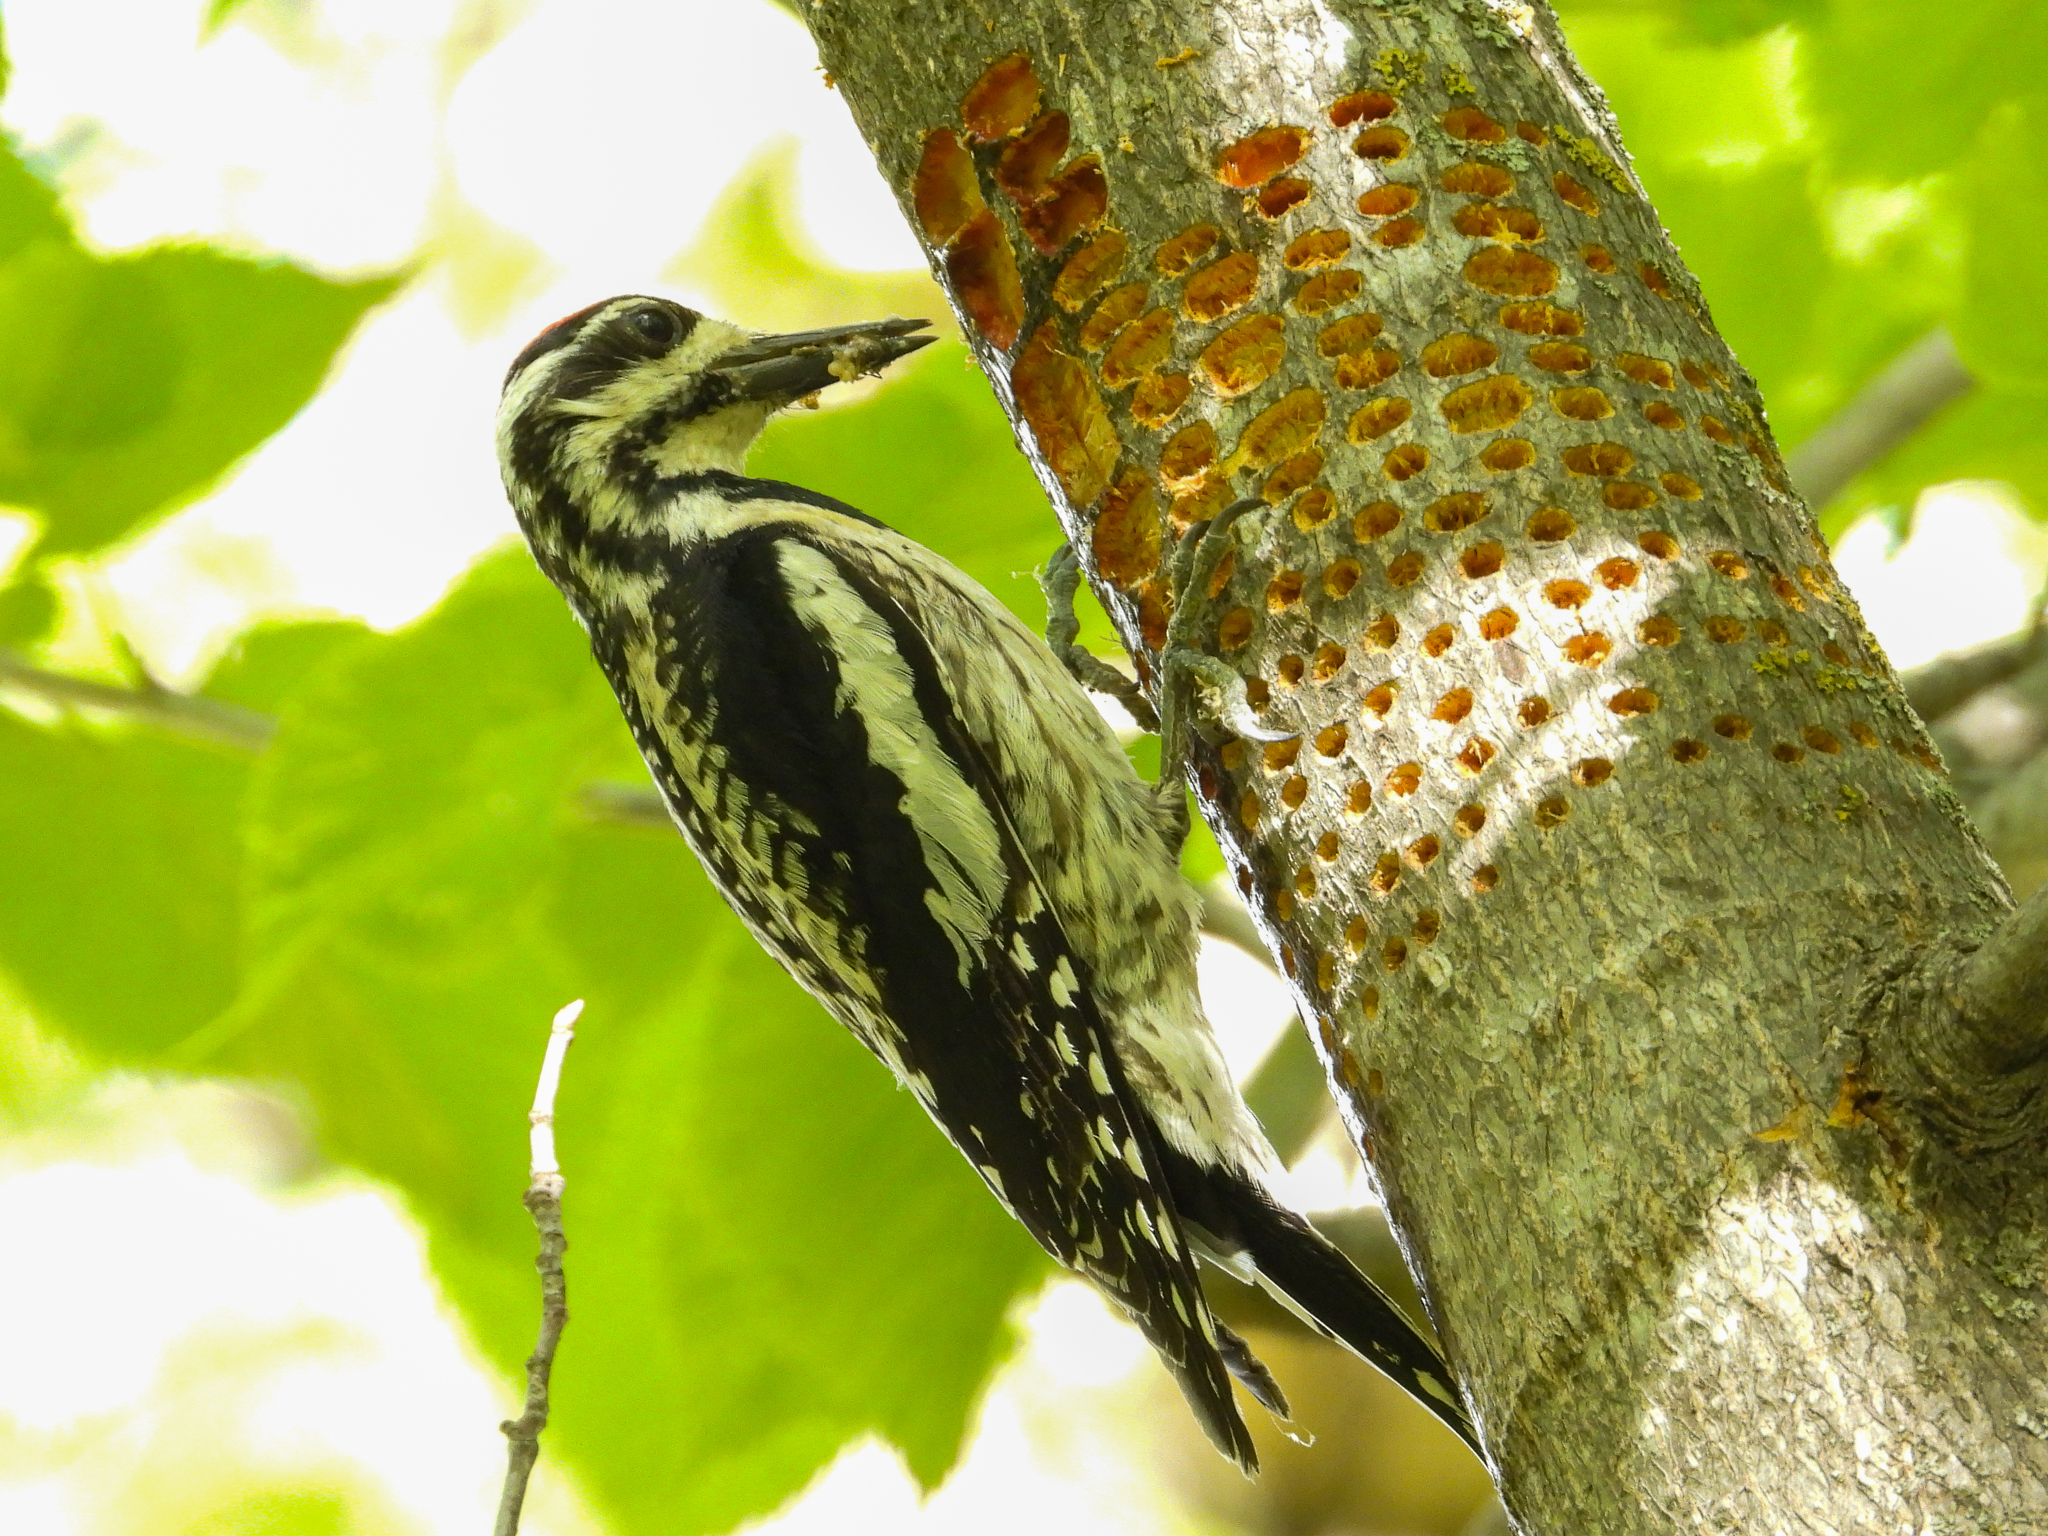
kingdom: Animalia
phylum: Chordata
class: Aves
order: Piciformes
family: Picidae
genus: Sphyrapicus
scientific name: Sphyrapicus varius
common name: Yellow-bellied sapsucker
